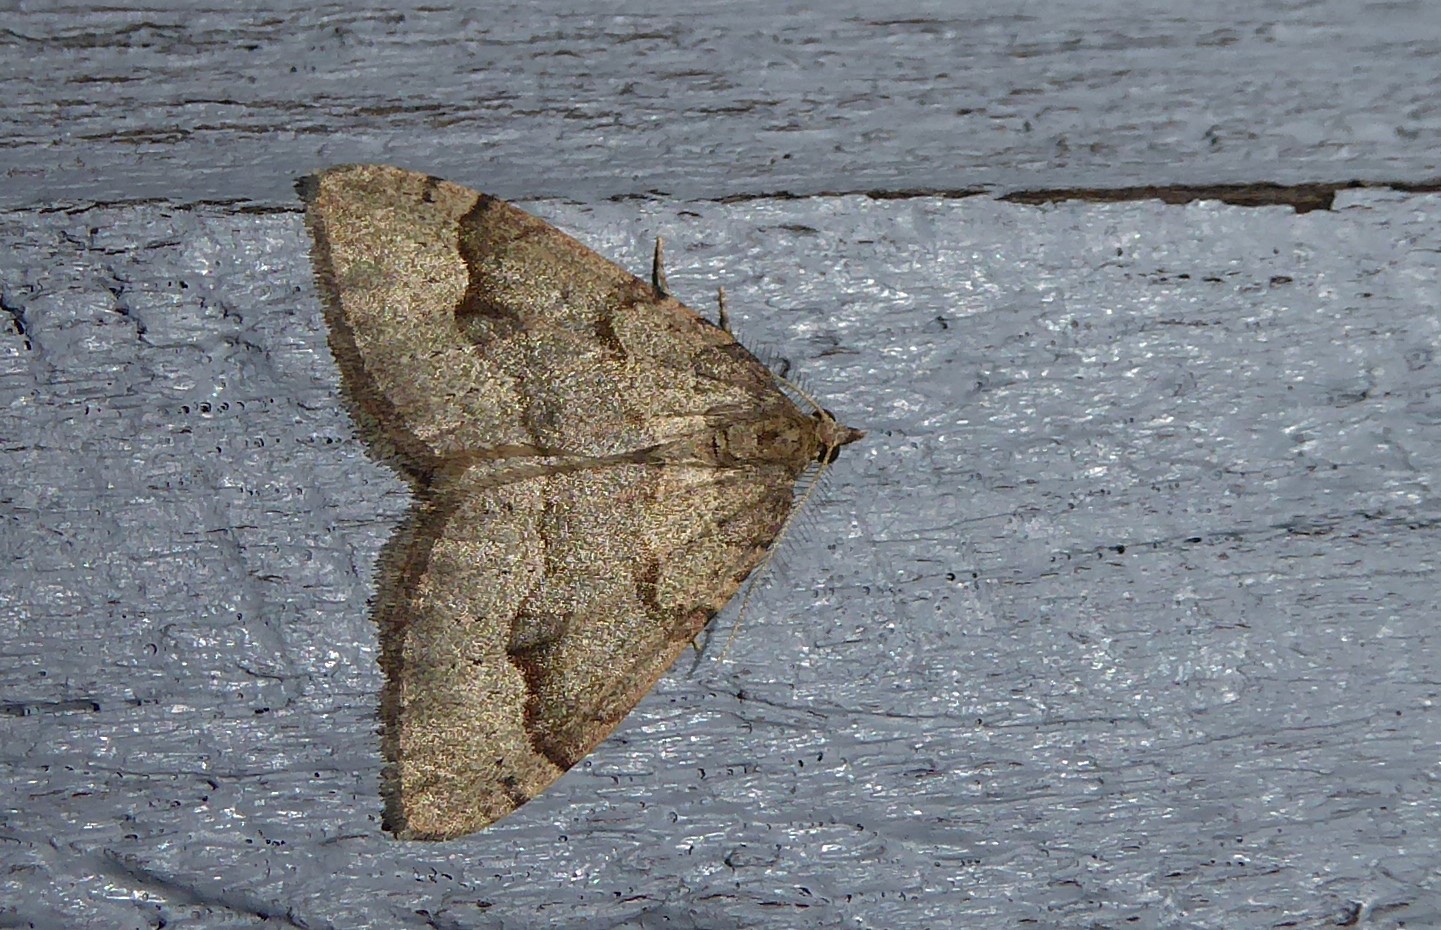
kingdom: Animalia
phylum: Arthropoda
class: Insecta
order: Lepidoptera
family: Geometridae
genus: Epyaxa
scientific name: Epyaxa rosearia
